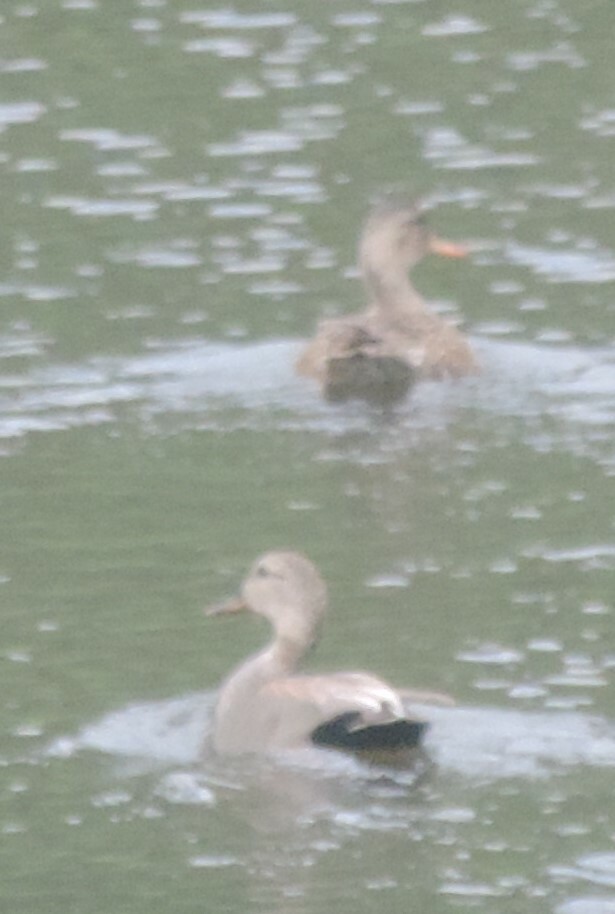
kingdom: Animalia
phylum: Chordata
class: Aves
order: Anseriformes
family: Anatidae
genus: Mareca
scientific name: Mareca strepera
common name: Gadwall
